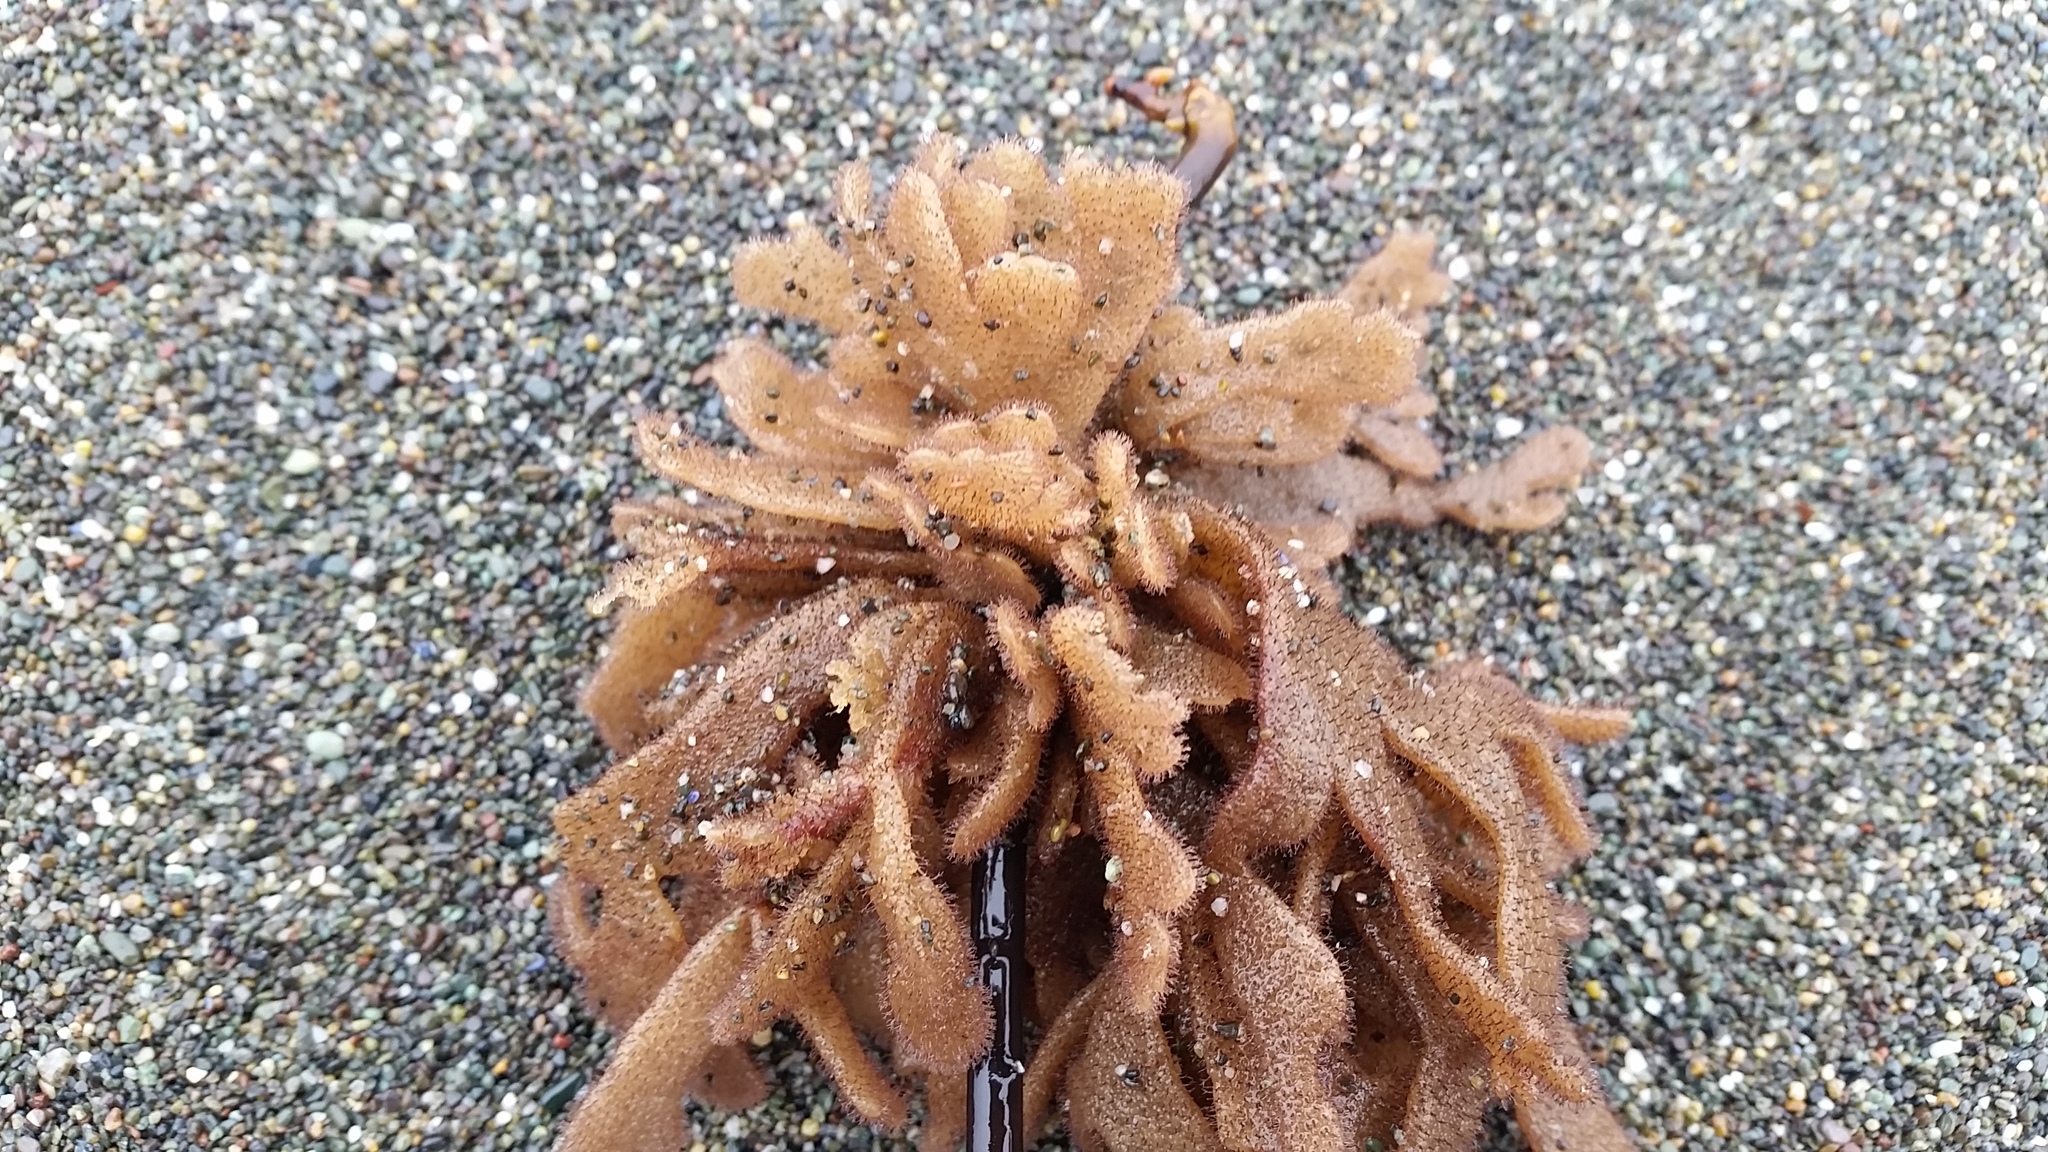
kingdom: Animalia
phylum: Bryozoa
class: Gymnolaemata
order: Ctenostomatida
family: Flustrellidridae
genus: Flustrellidra
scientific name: Flustrellidra corniculata
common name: Spiny leather bryozoan
